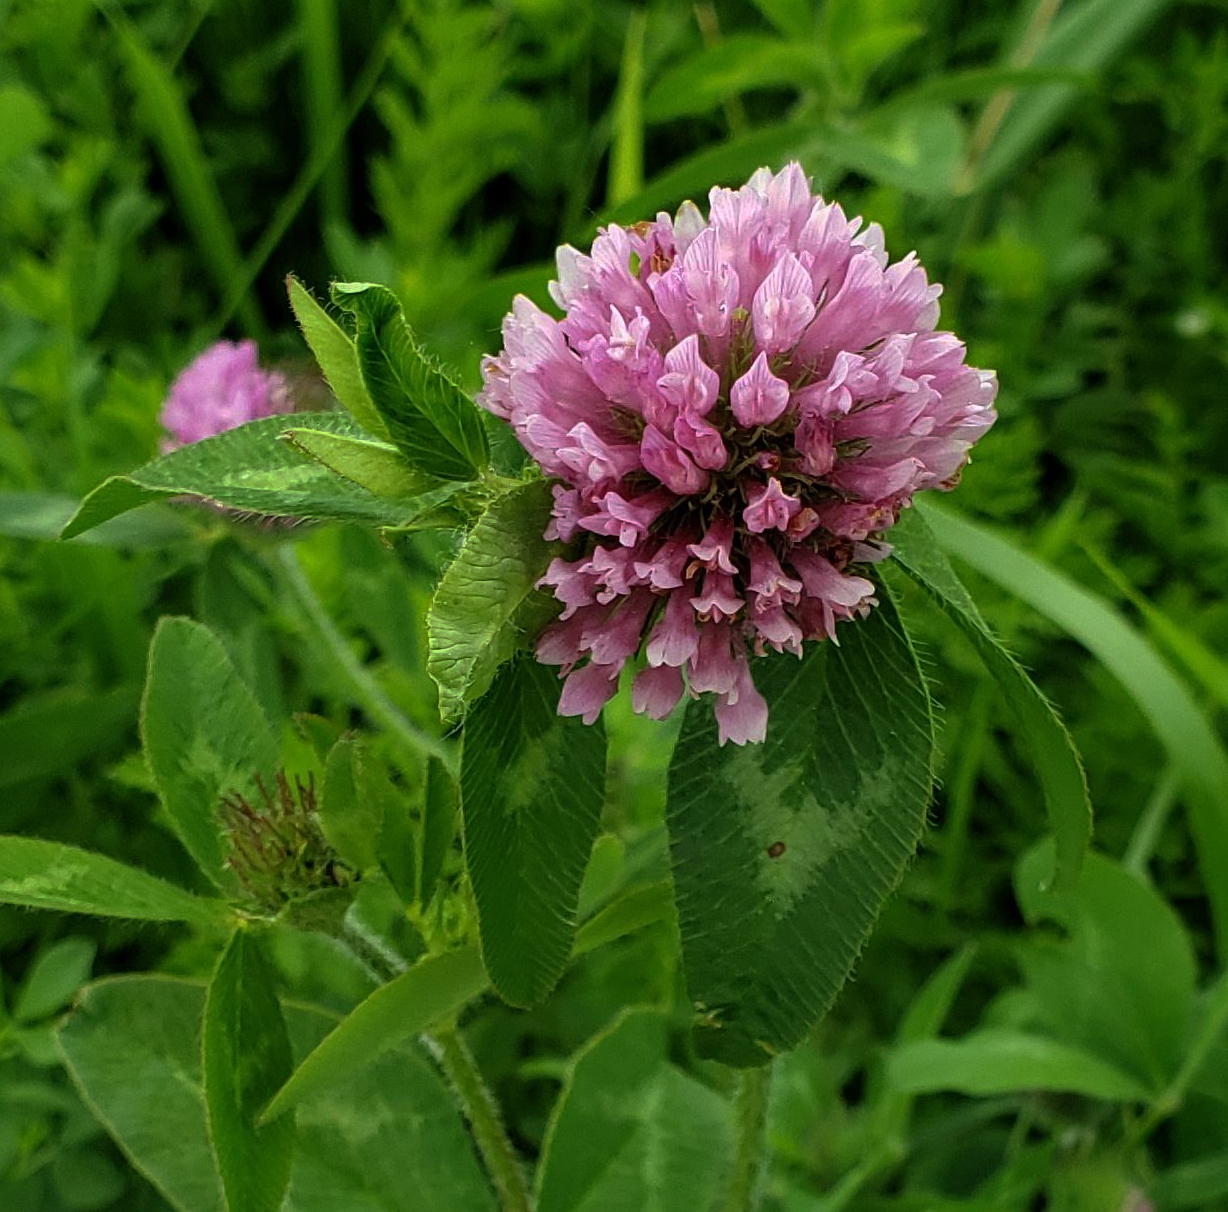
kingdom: Plantae
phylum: Tracheophyta
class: Magnoliopsida
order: Fabales
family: Fabaceae
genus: Trifolium
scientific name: Trifolium pratense
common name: Red clover
